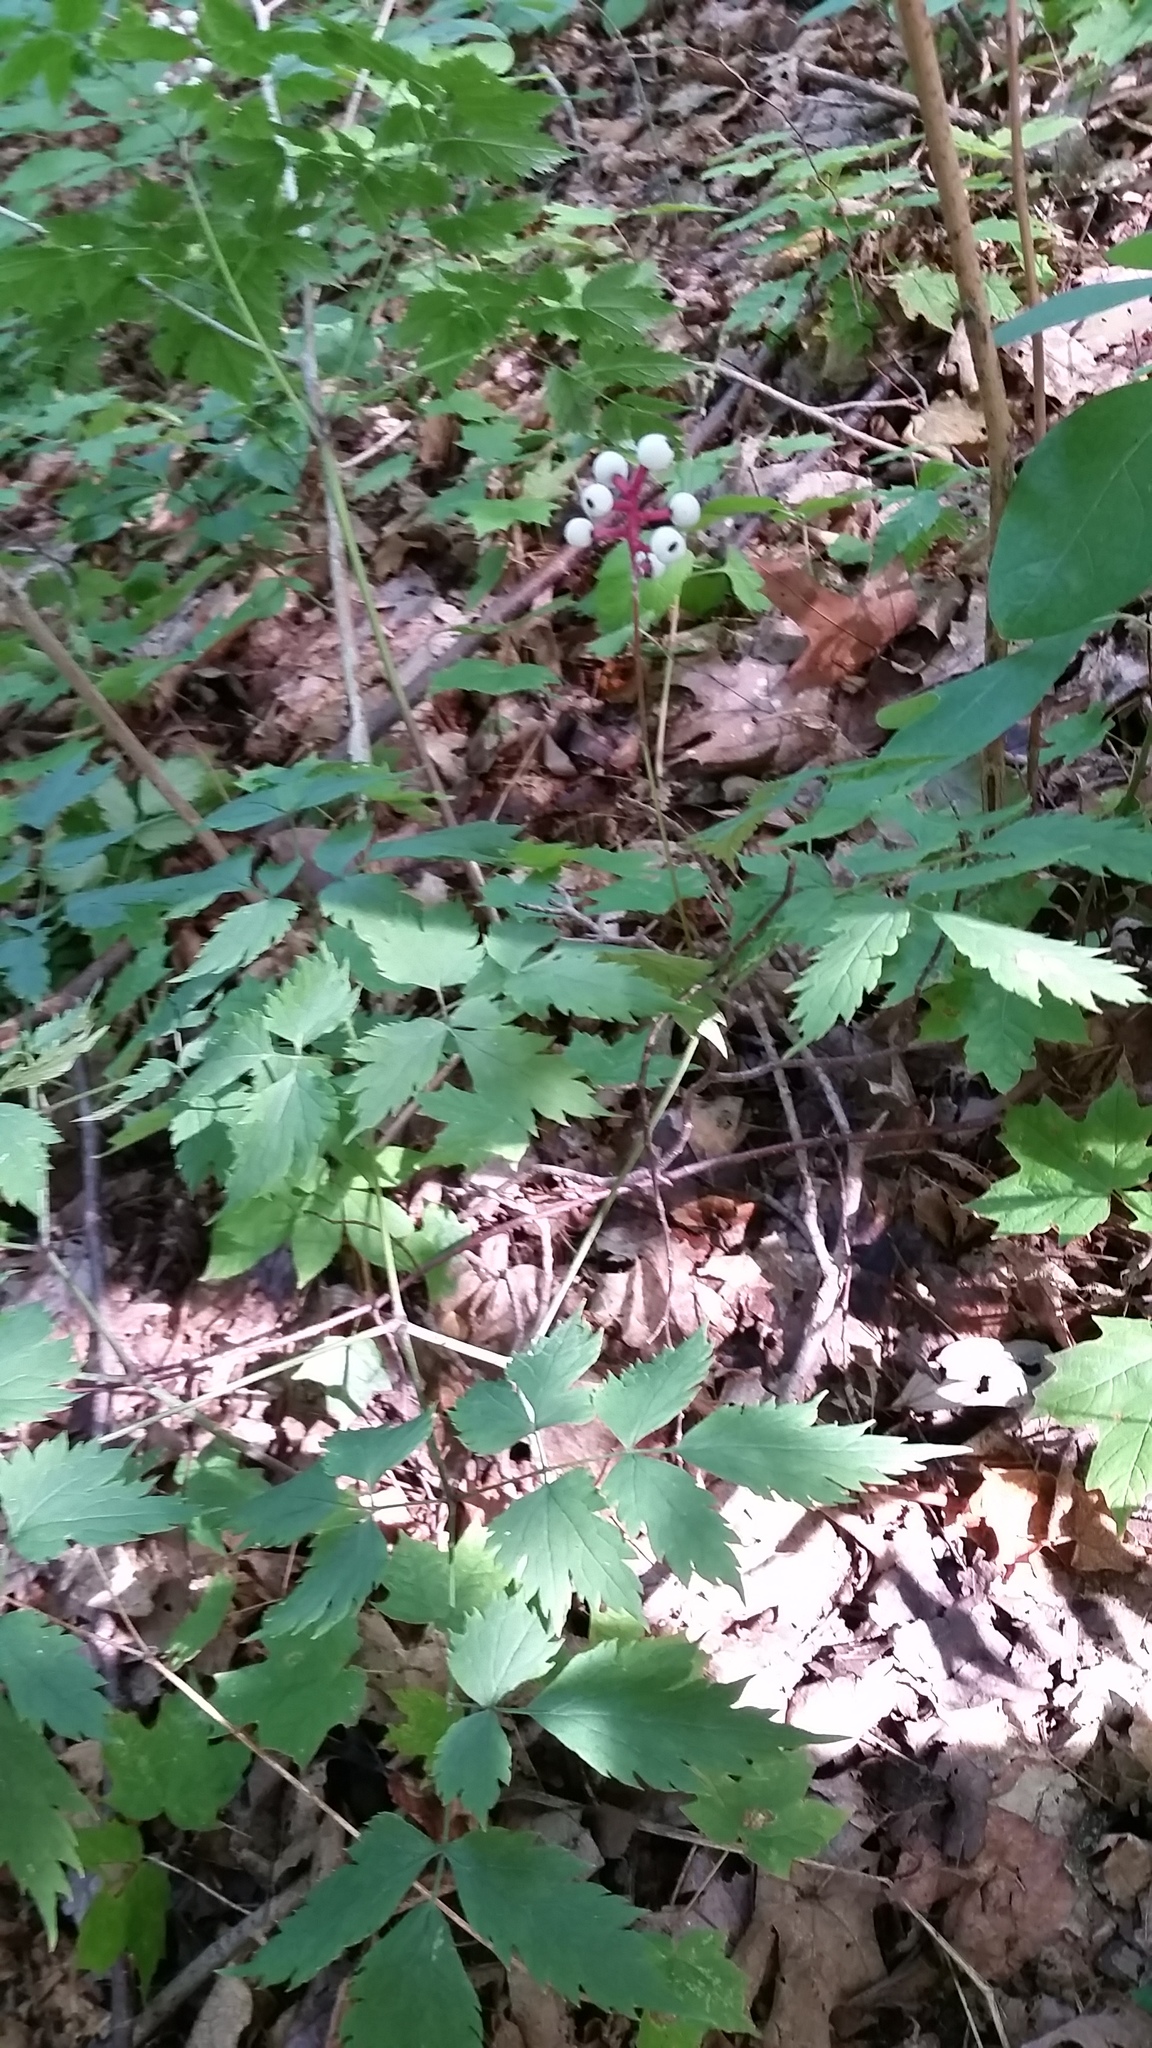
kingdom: Plantae
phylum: Tracheophyta
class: Magnoliopsida
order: Ranunculales
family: Ranunculaceae
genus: Actaea
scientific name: Actaea pachypoda
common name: Doll's-eyes
